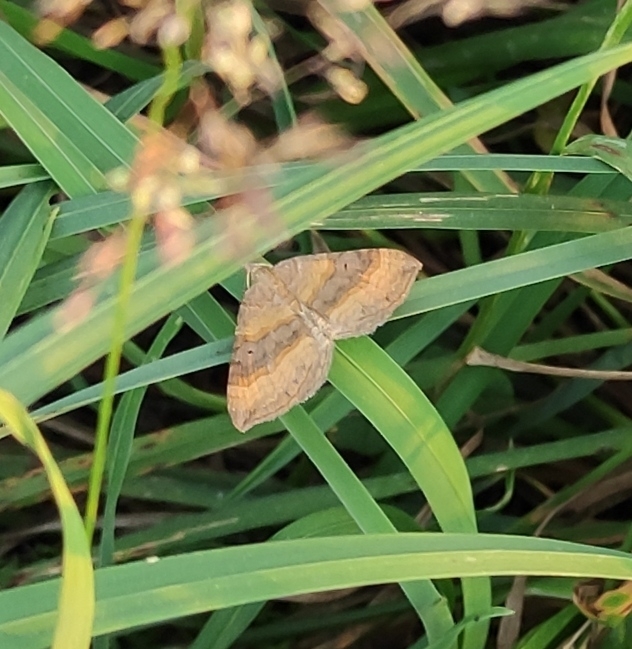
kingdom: Animalia
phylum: Arthropoda
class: Insecta
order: Lepidoptera
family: Geometridae
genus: Scotopteryx
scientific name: Scotopteryx chenopodiata
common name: Shaded broad-bar
